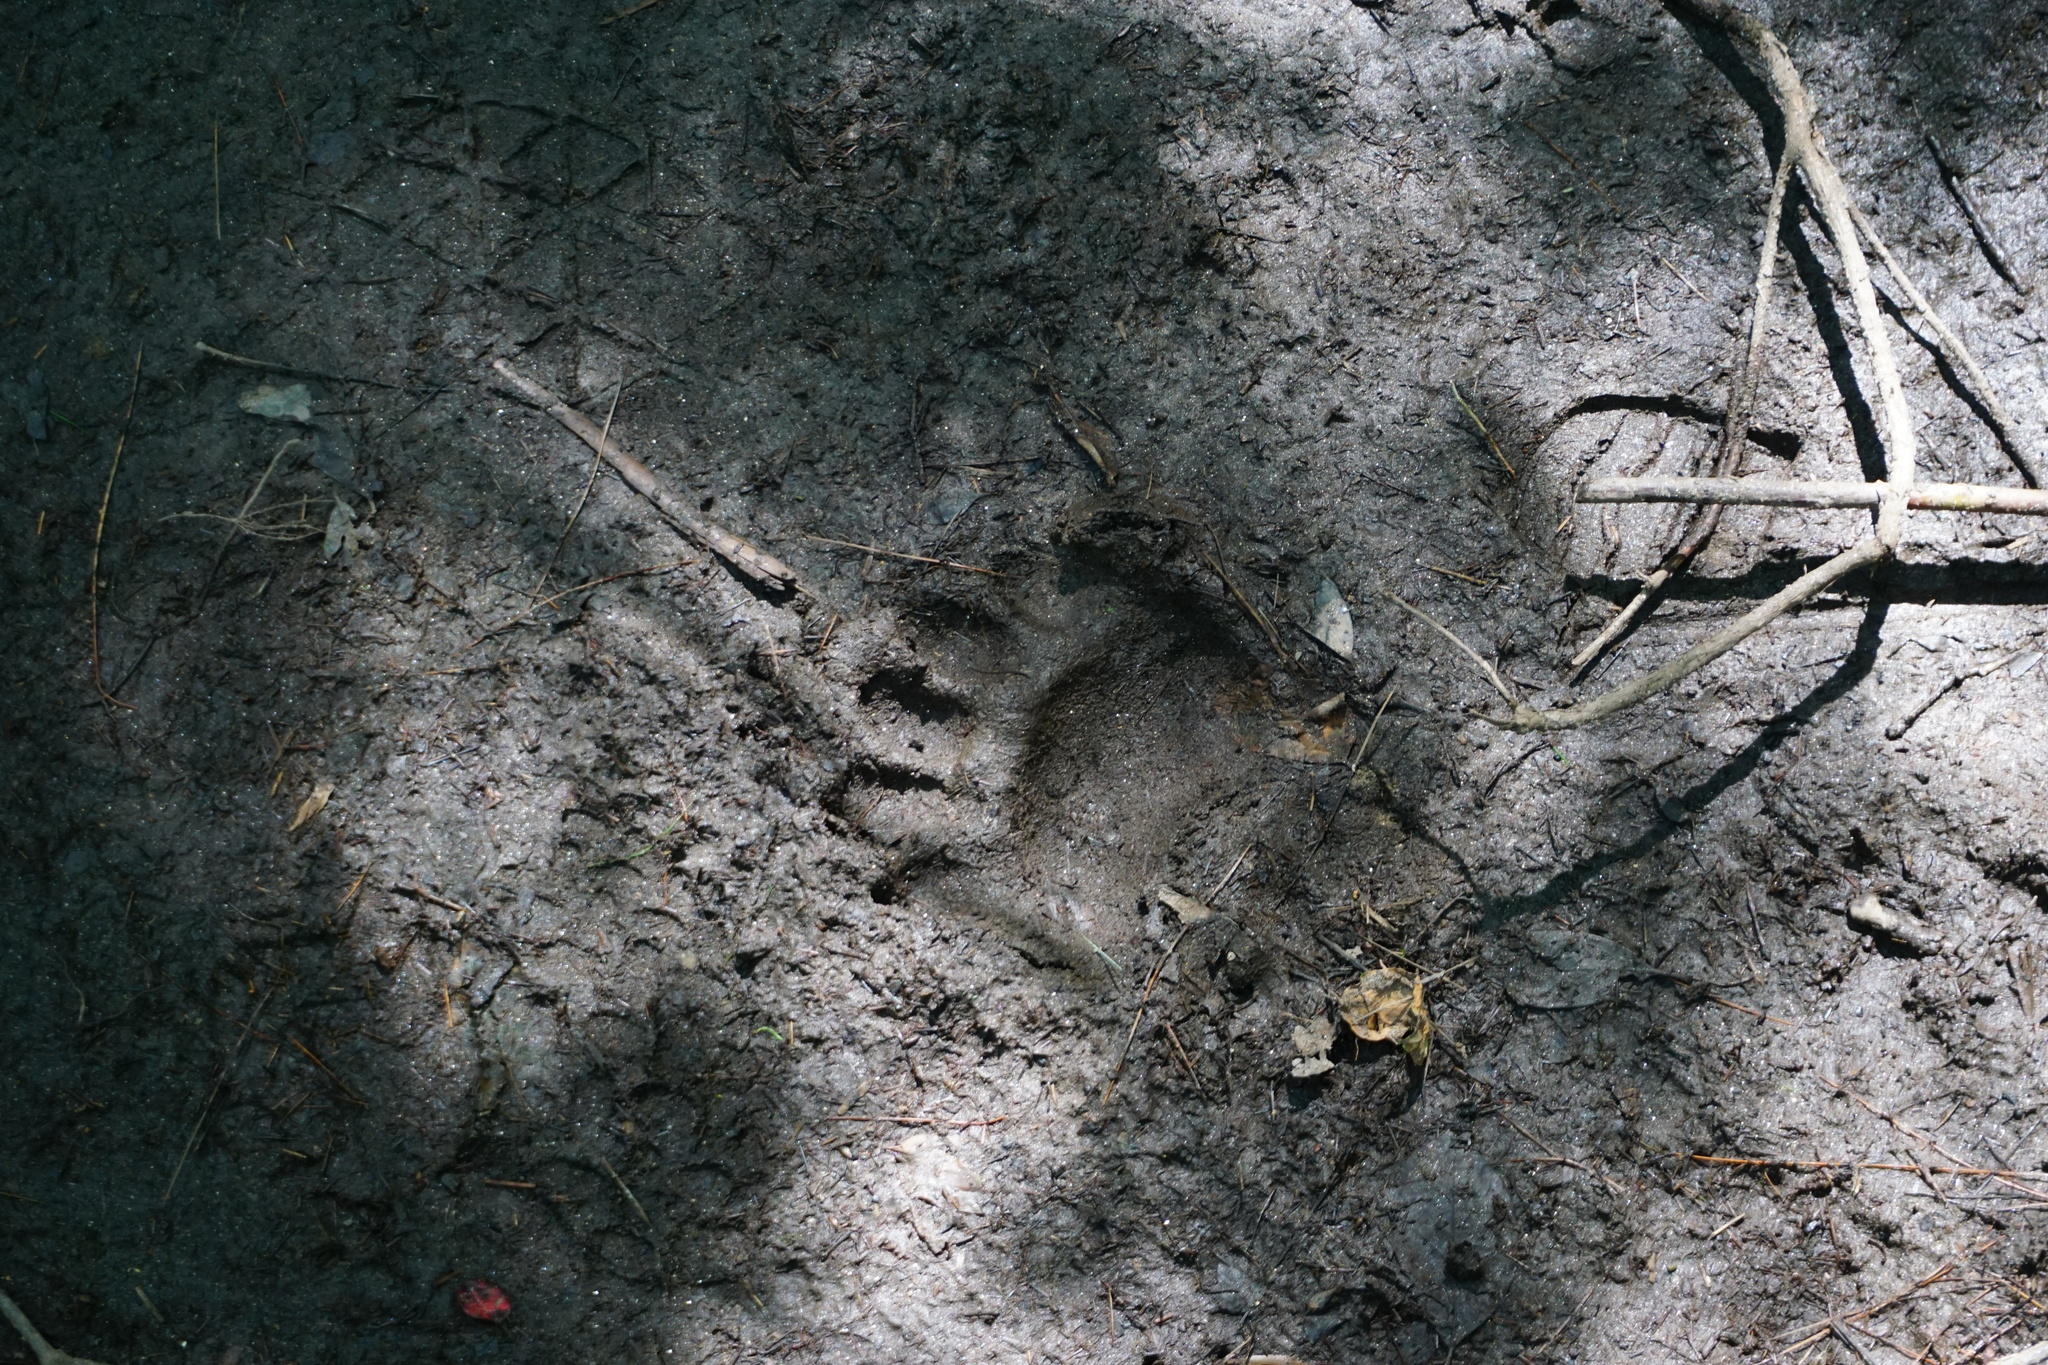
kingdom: Animalia
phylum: Chordata
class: Mammalia
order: Carnivora
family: Ursidae
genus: Ursus
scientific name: Ursus americanus
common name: American black bear
